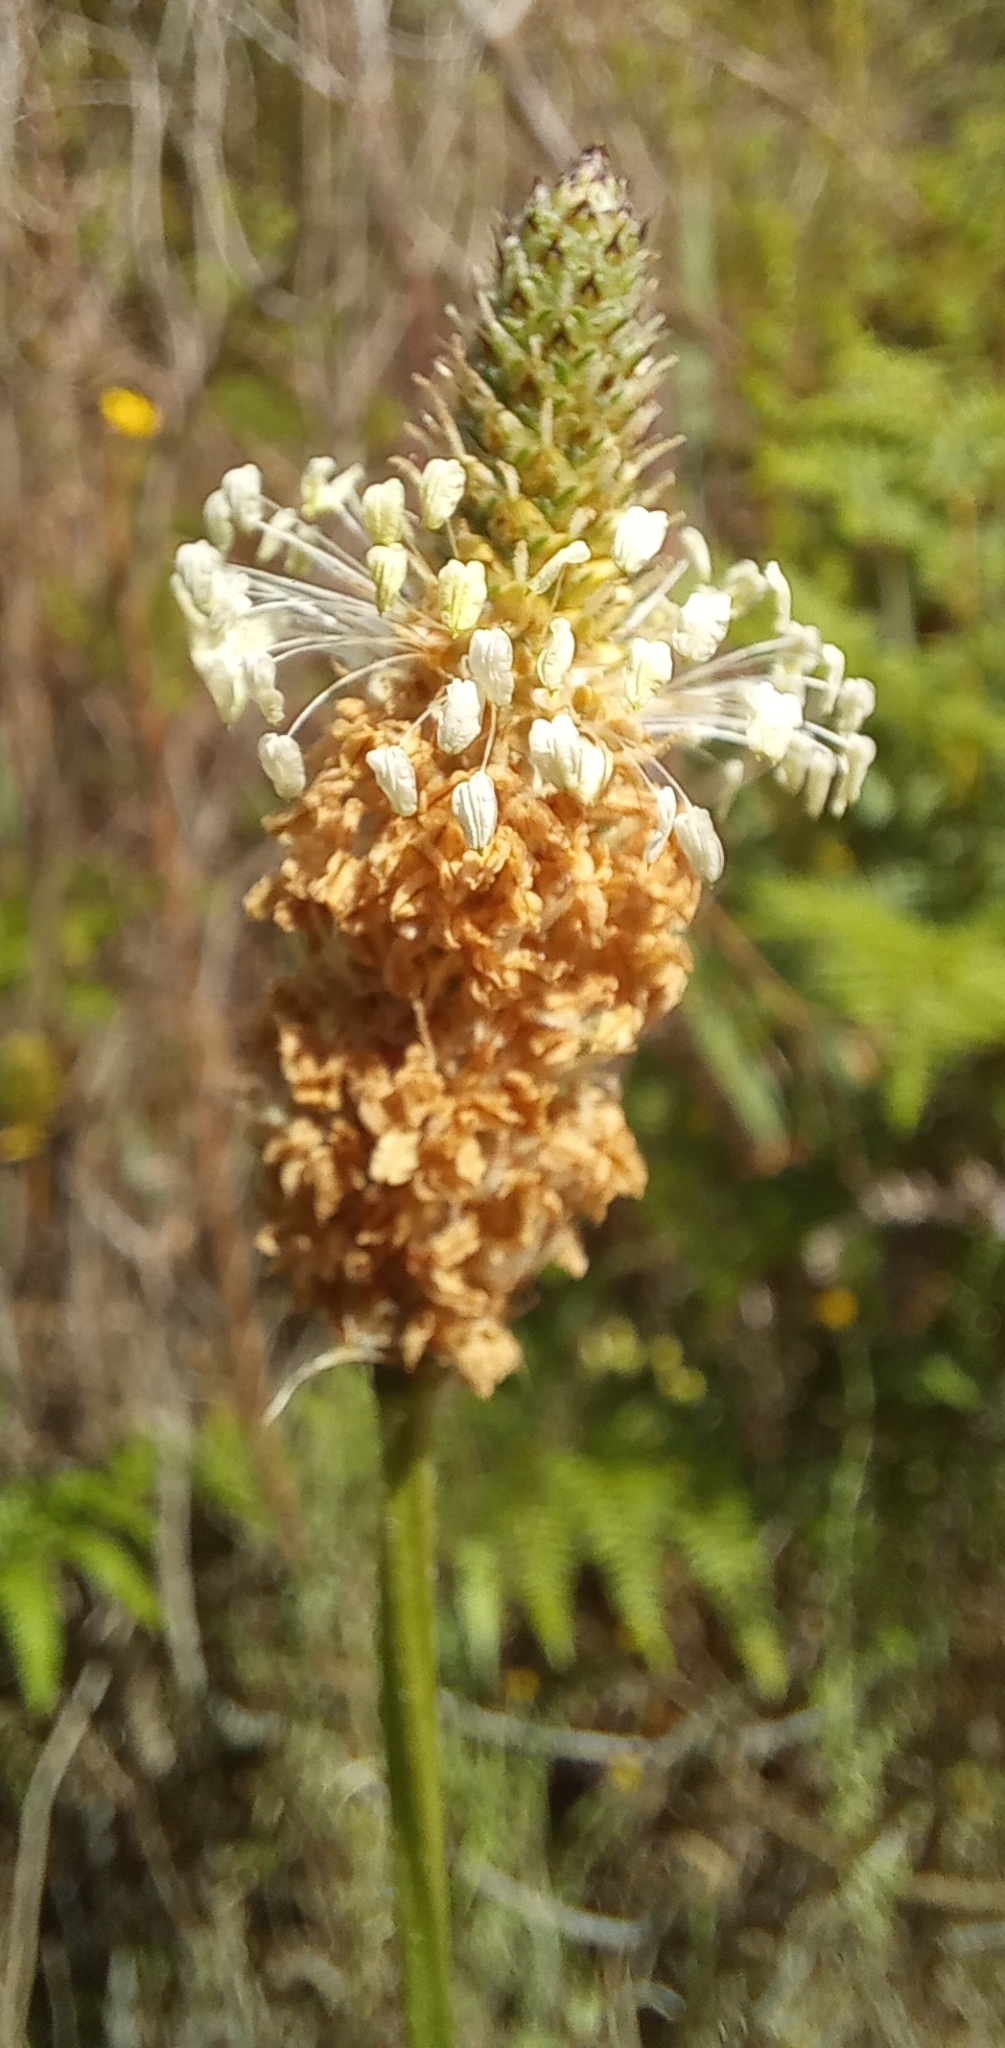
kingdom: Plantae
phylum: Tracheophyta
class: Magnoliopsida
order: Lamiales
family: Plantaginaceae
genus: Plantago
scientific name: Plantago lanceolata
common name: Ribwort plantain
